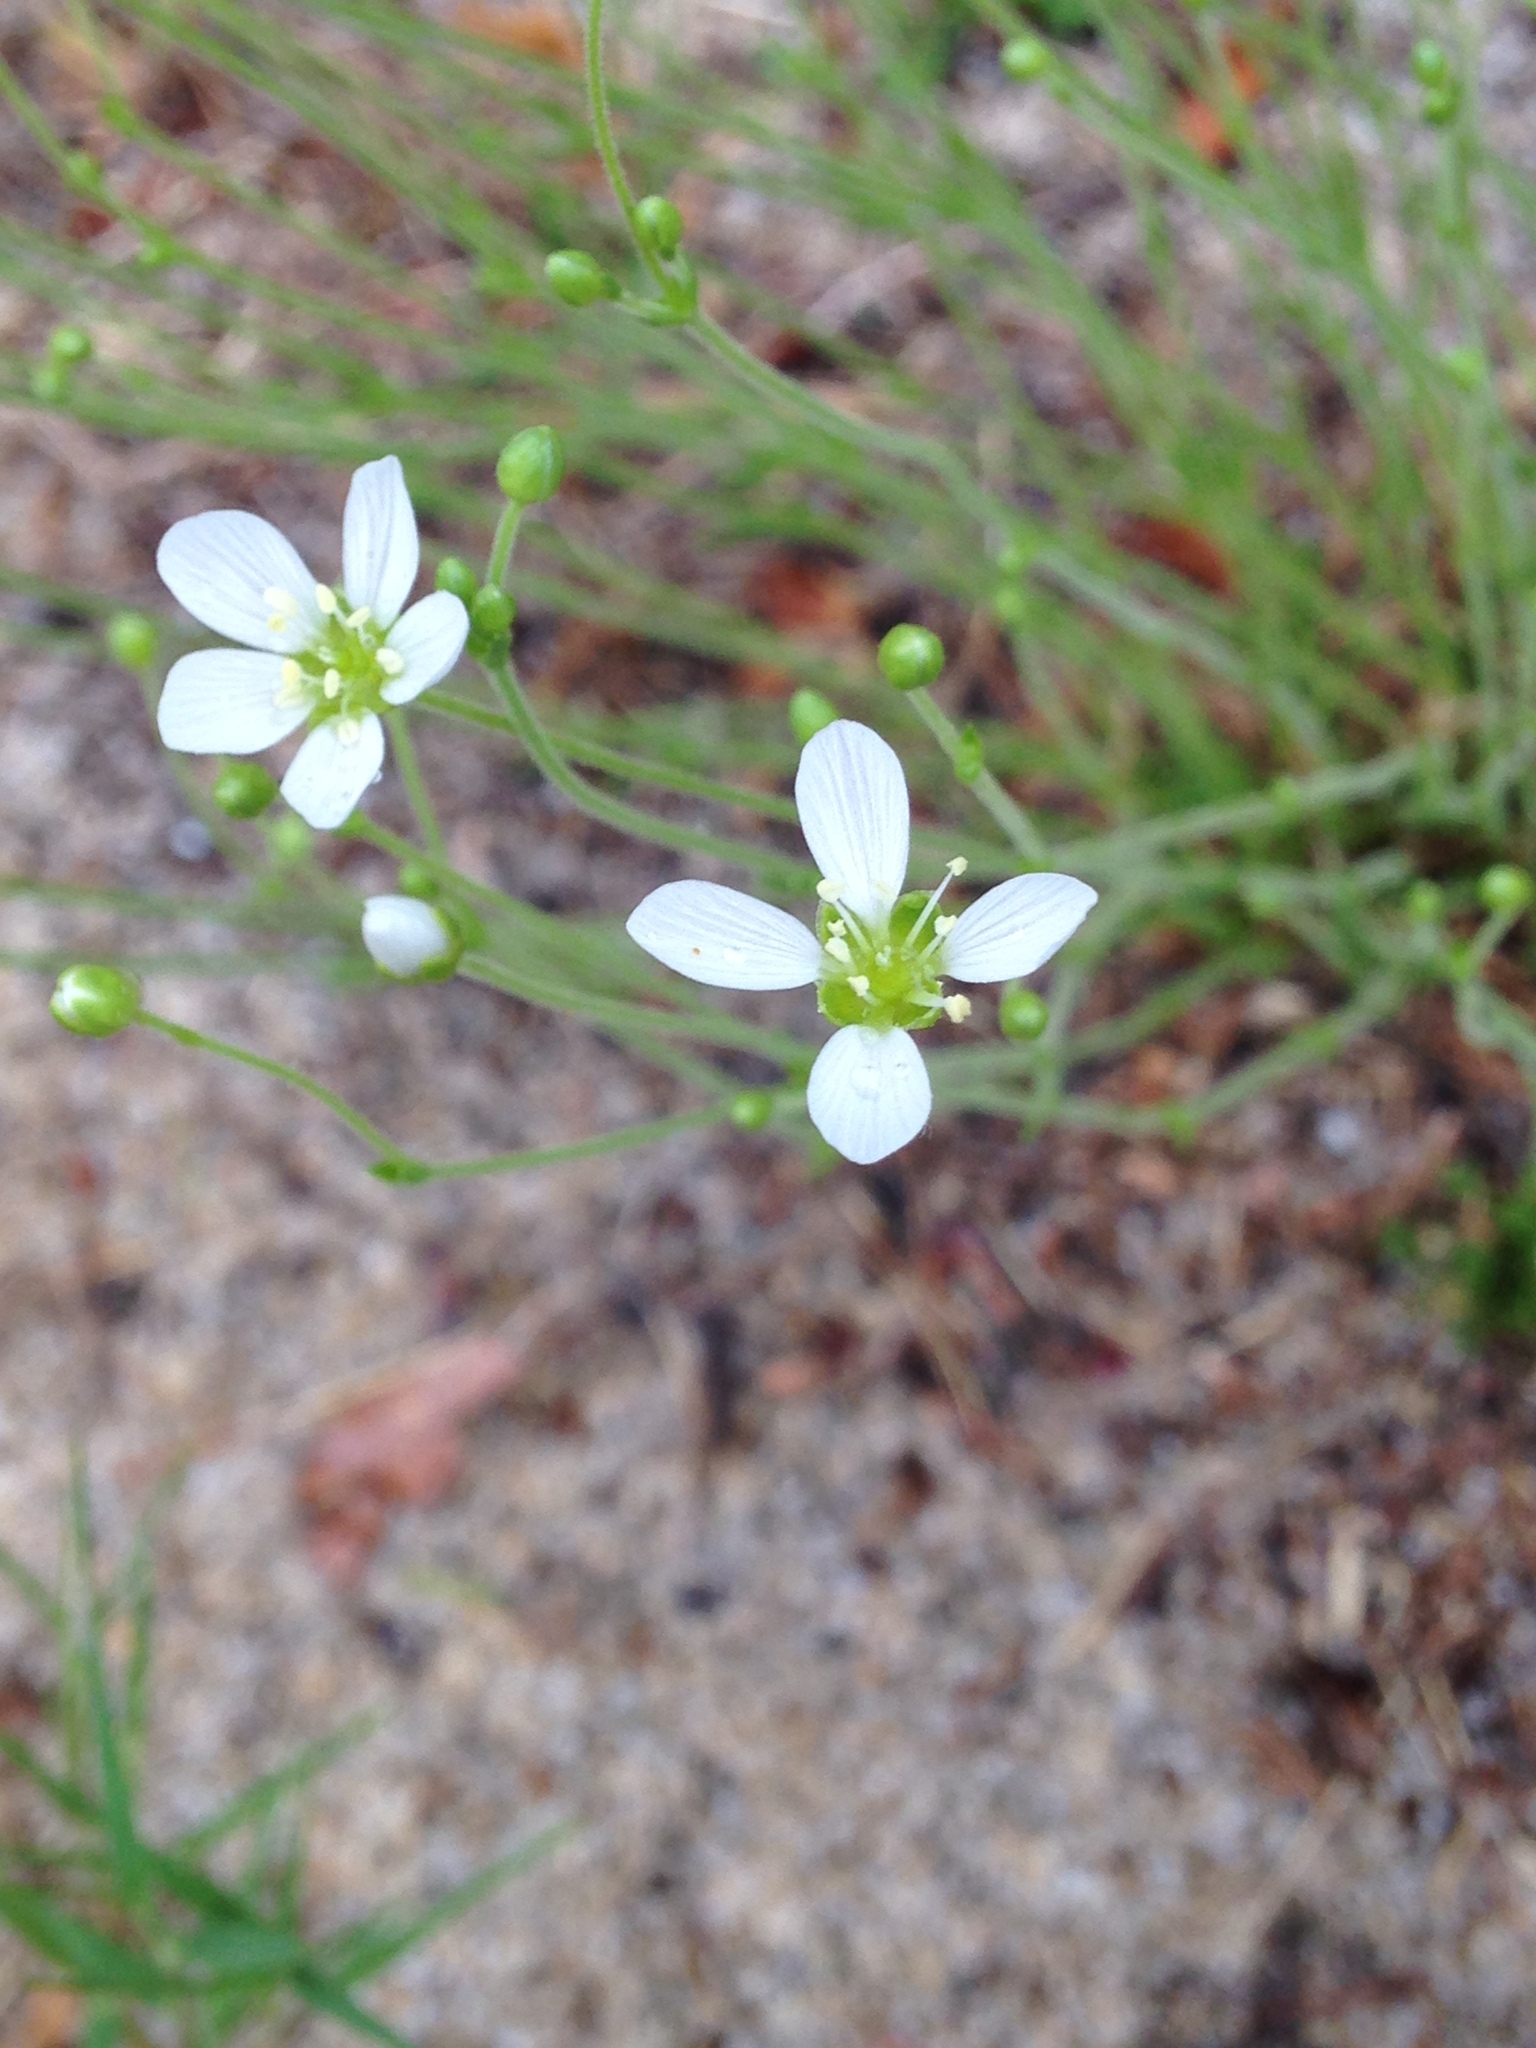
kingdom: Plantae
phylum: Tracheophyta
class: Magnoliopsida
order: Caryophyllales
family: Caryophyllaceae
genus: Geocarpon
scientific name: Geocarpon carolinianum
